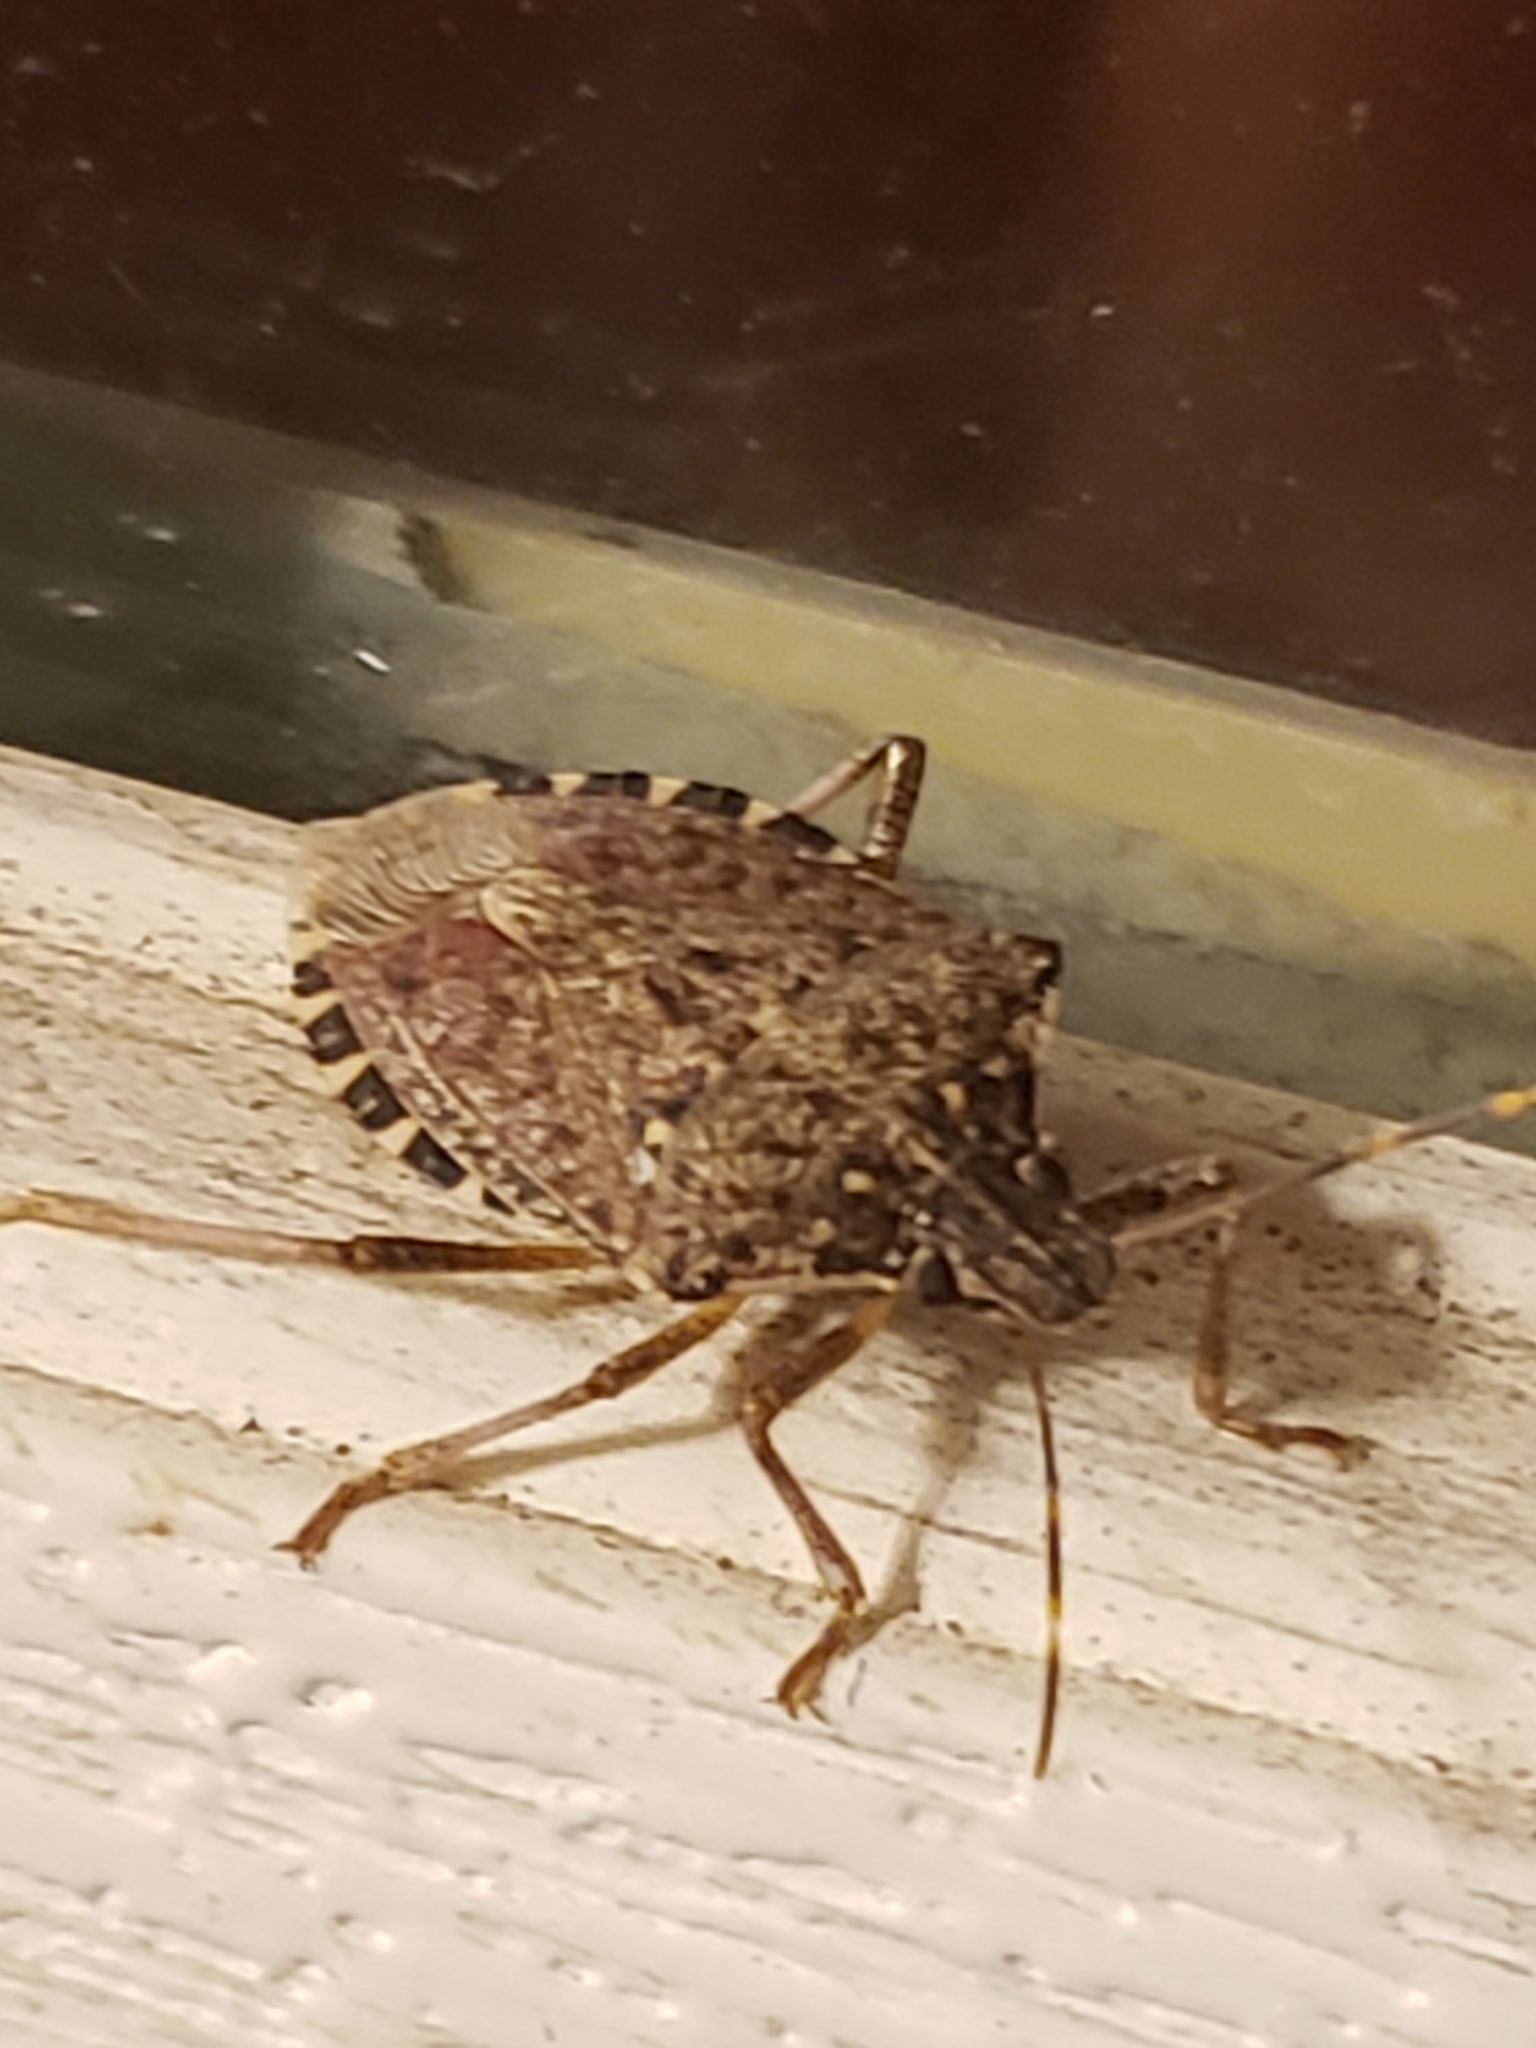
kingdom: Animalia
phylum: Arthropoda
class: Insecta
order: Hemiptera
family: Pentatomidae
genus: Halyomorpha
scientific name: Halyomorpha halys
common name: Brown marmorated stink bug
